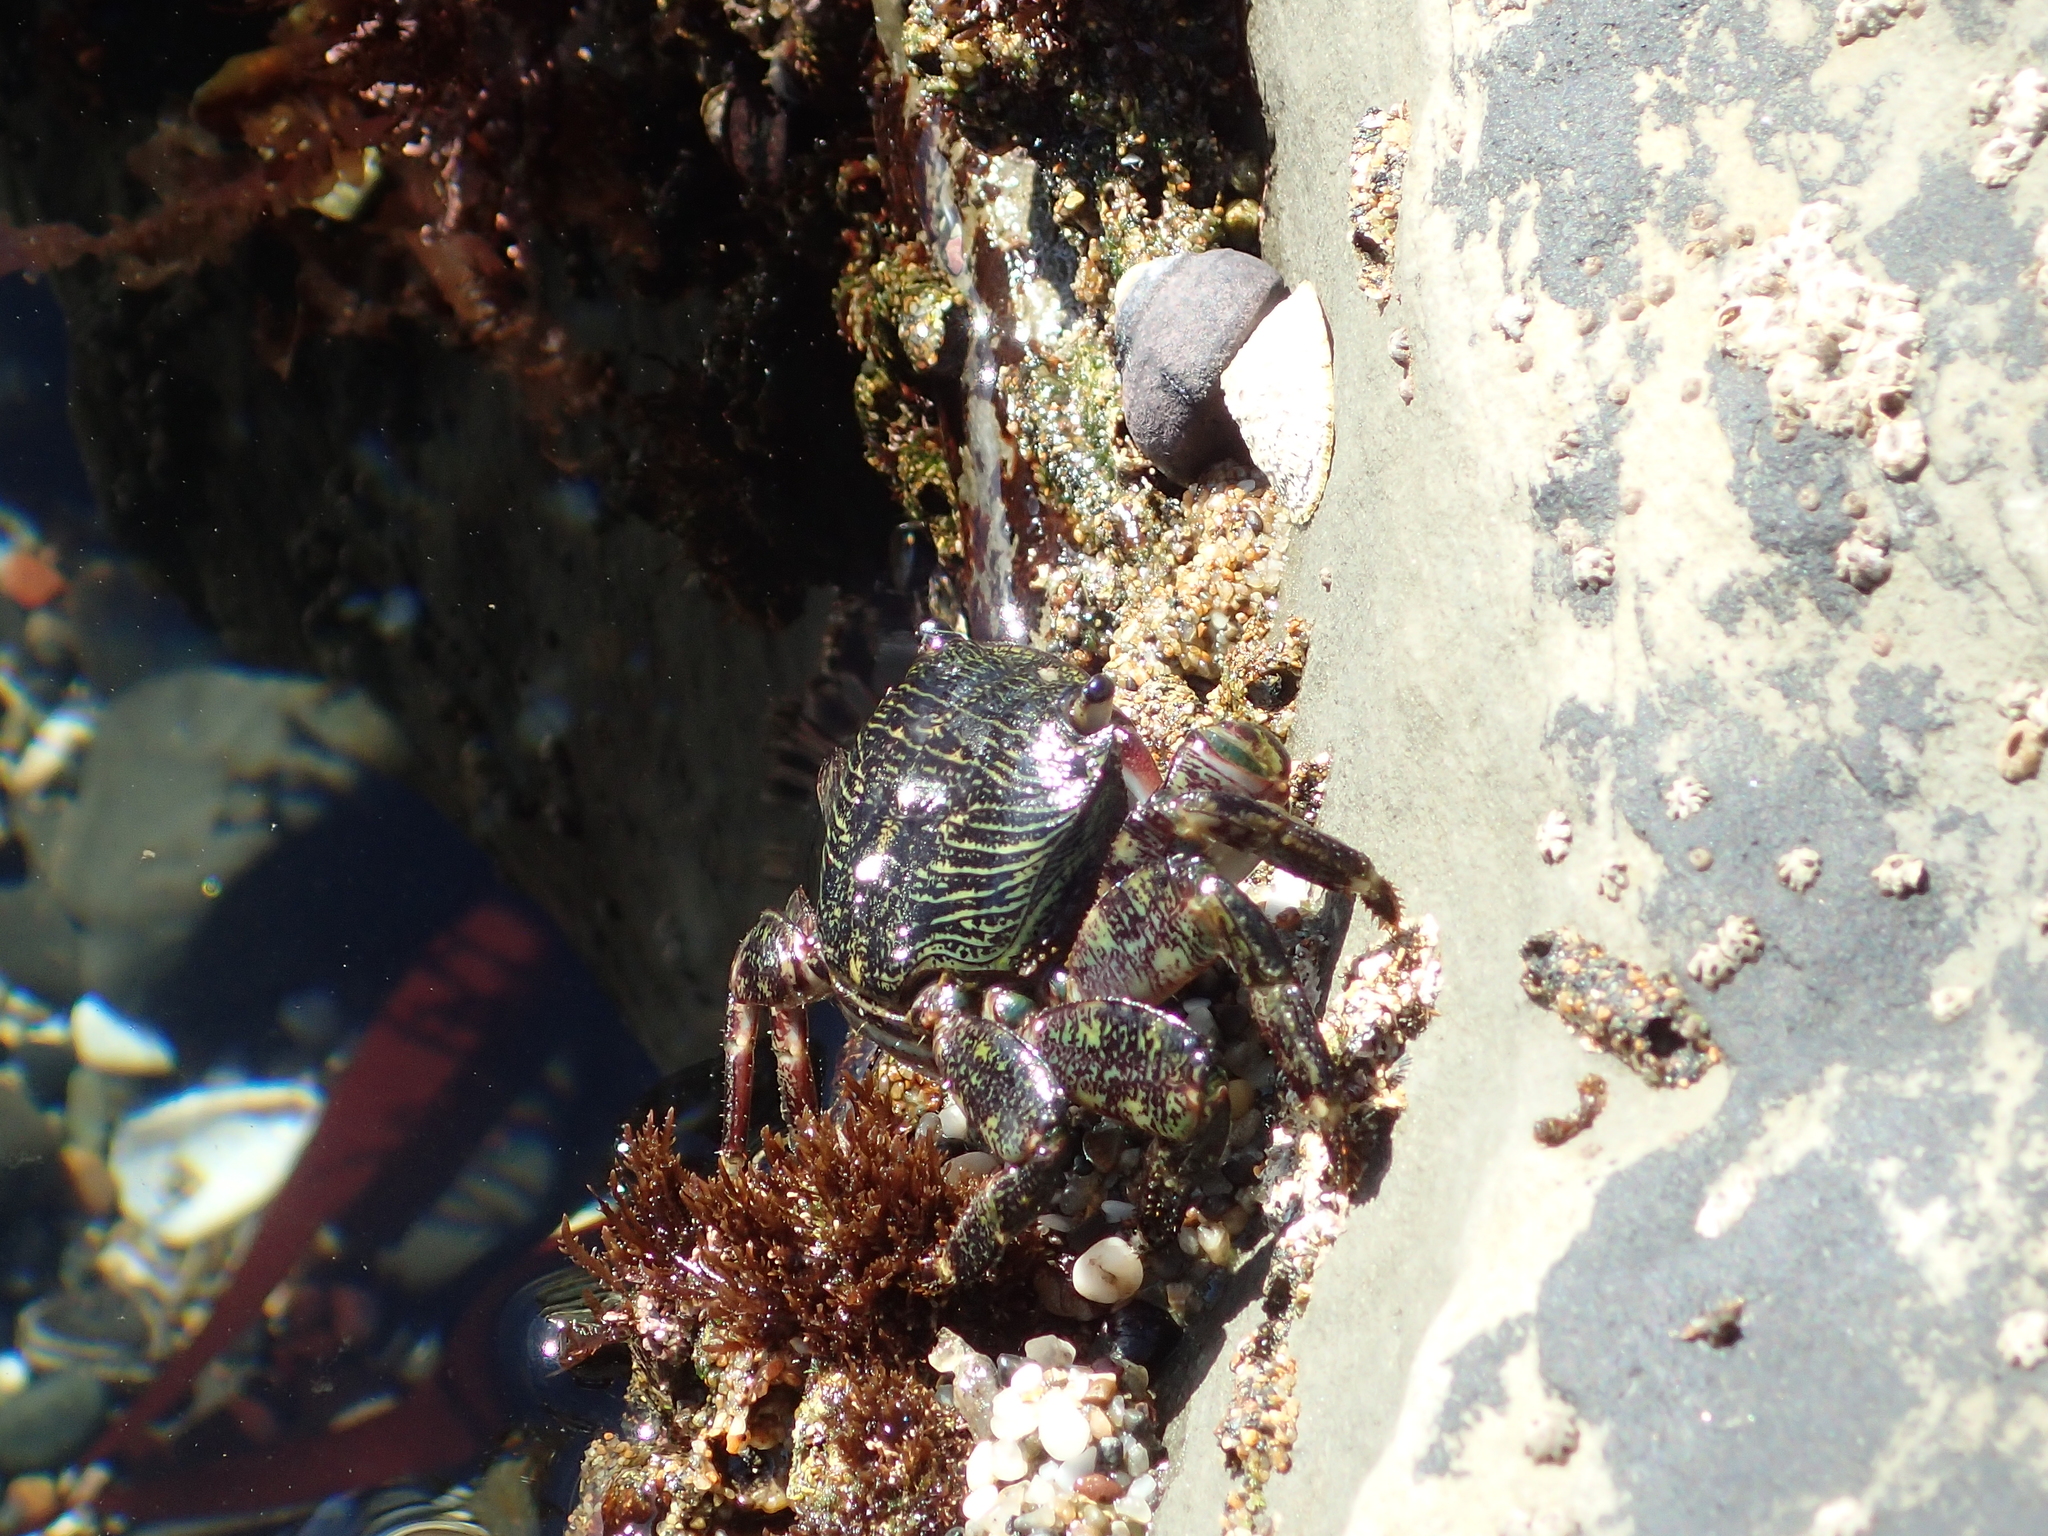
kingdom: Animalia
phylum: Arthropoda
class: Malacostraca
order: Decapoda
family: Grapsidae
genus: Pachygrapsus
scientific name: Pachygrapsus crassipes
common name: Striped shore crab
